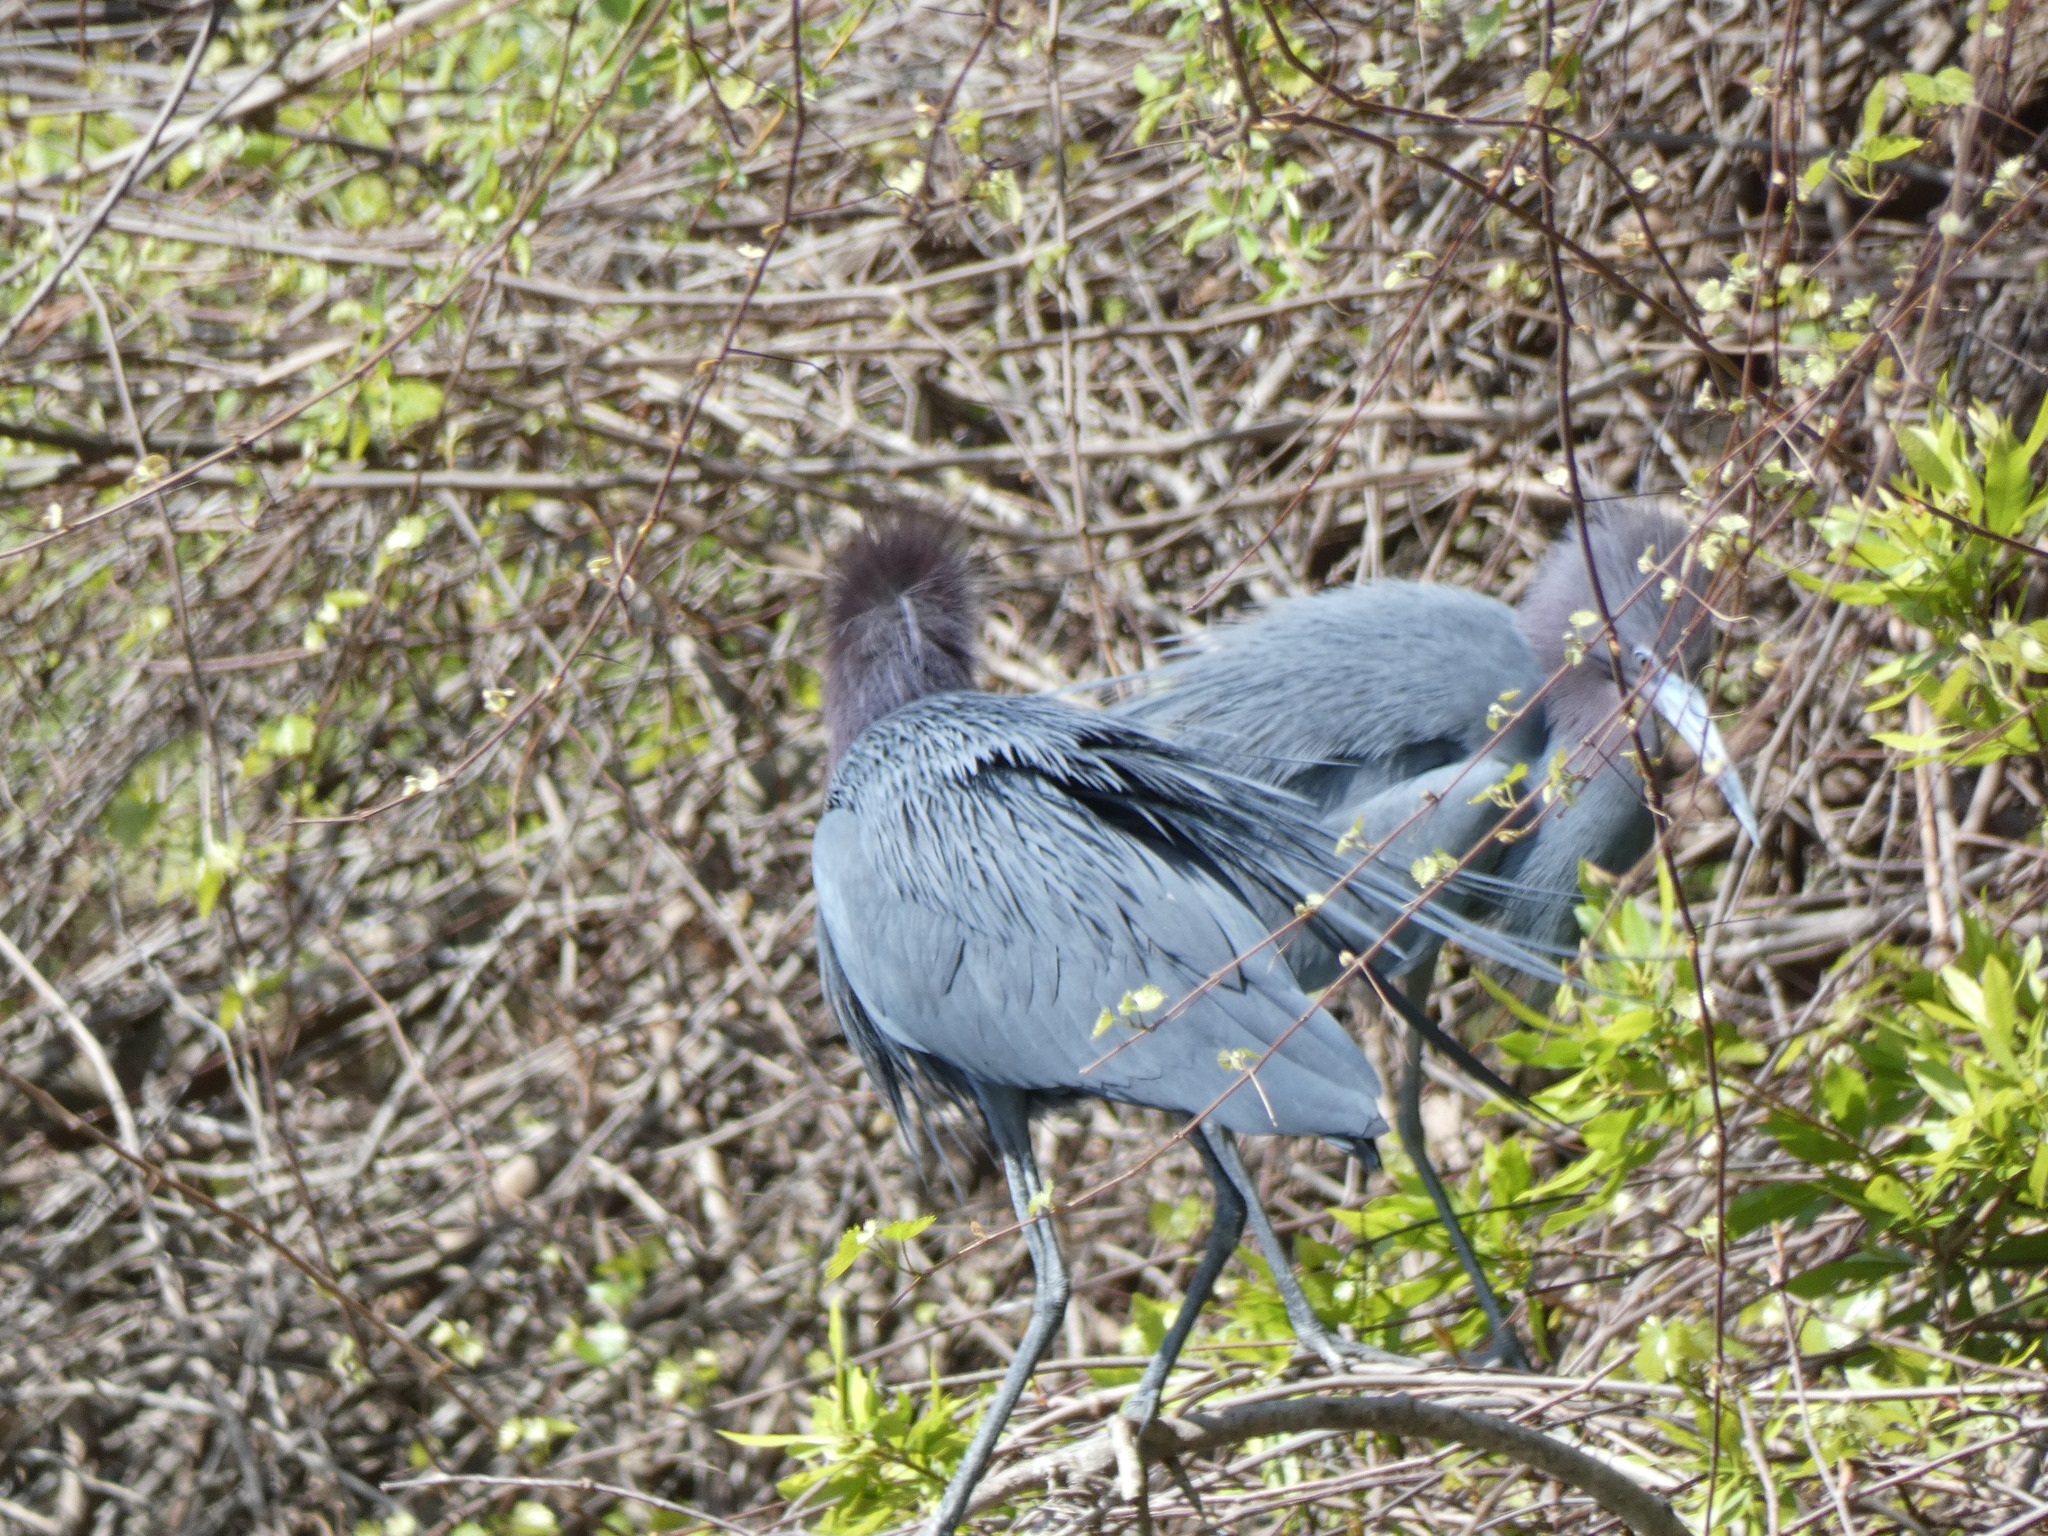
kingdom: Animalia
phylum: Chordata
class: Aves
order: Pelecaniformes
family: Ardeidae
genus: Egretta
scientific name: Egretta caerulea
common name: Little blue heron
